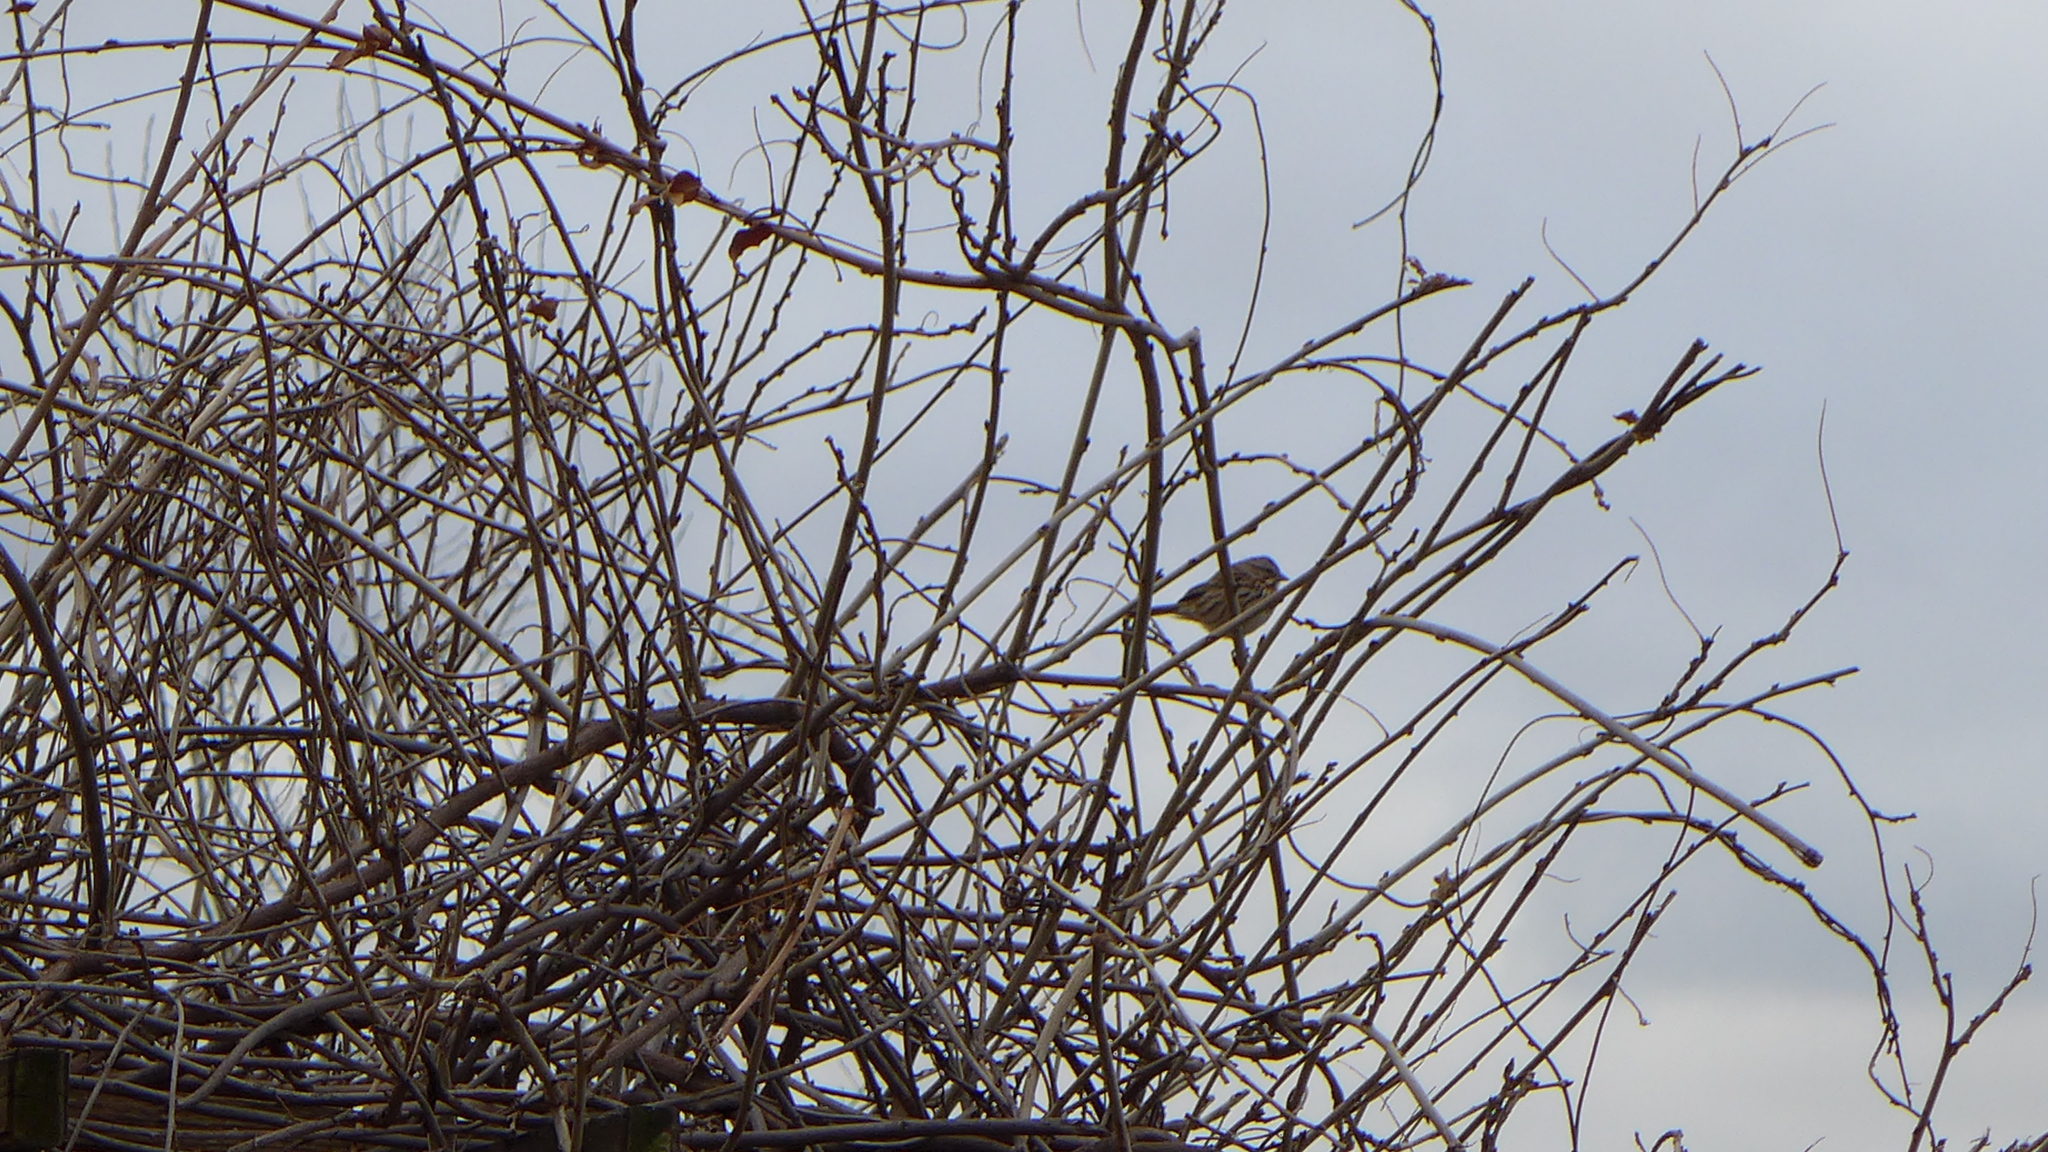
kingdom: Animalia
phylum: Chordata
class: Aves
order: Passeriformes
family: Passerellidae
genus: Melospiza
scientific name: Melospiza melodia
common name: Song sparrow
